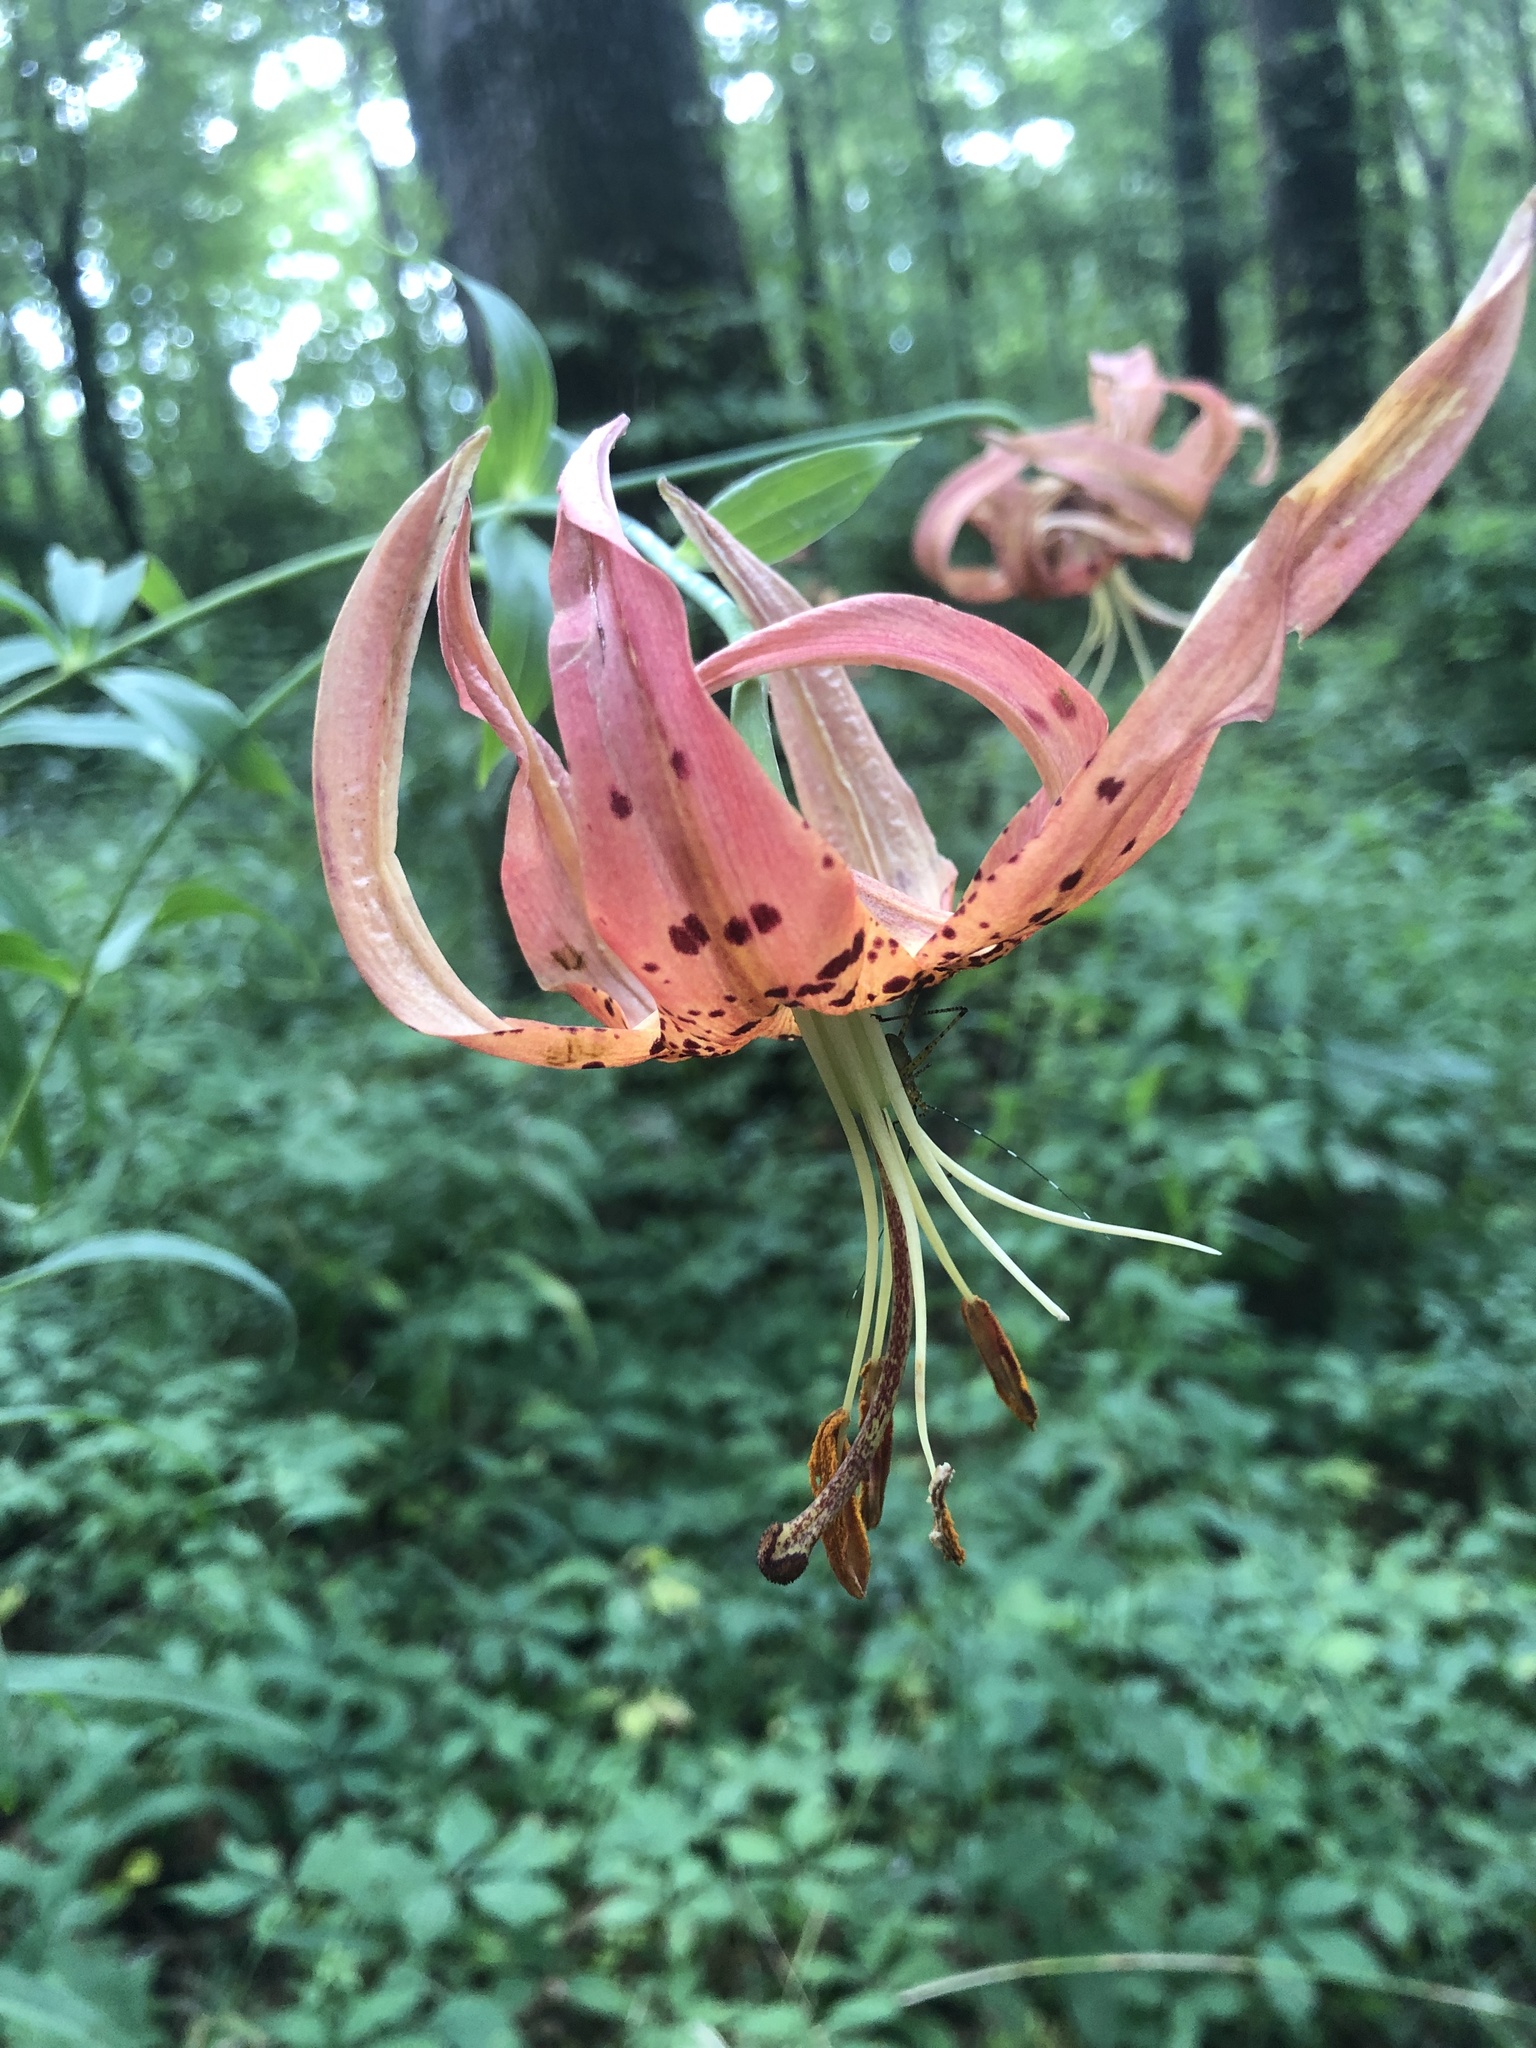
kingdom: Plantae
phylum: Tracheophyta
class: Liliopsida
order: Liliales
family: Liliaceae
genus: Lilium
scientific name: Lilium superbum
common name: American turk's-cap lily
